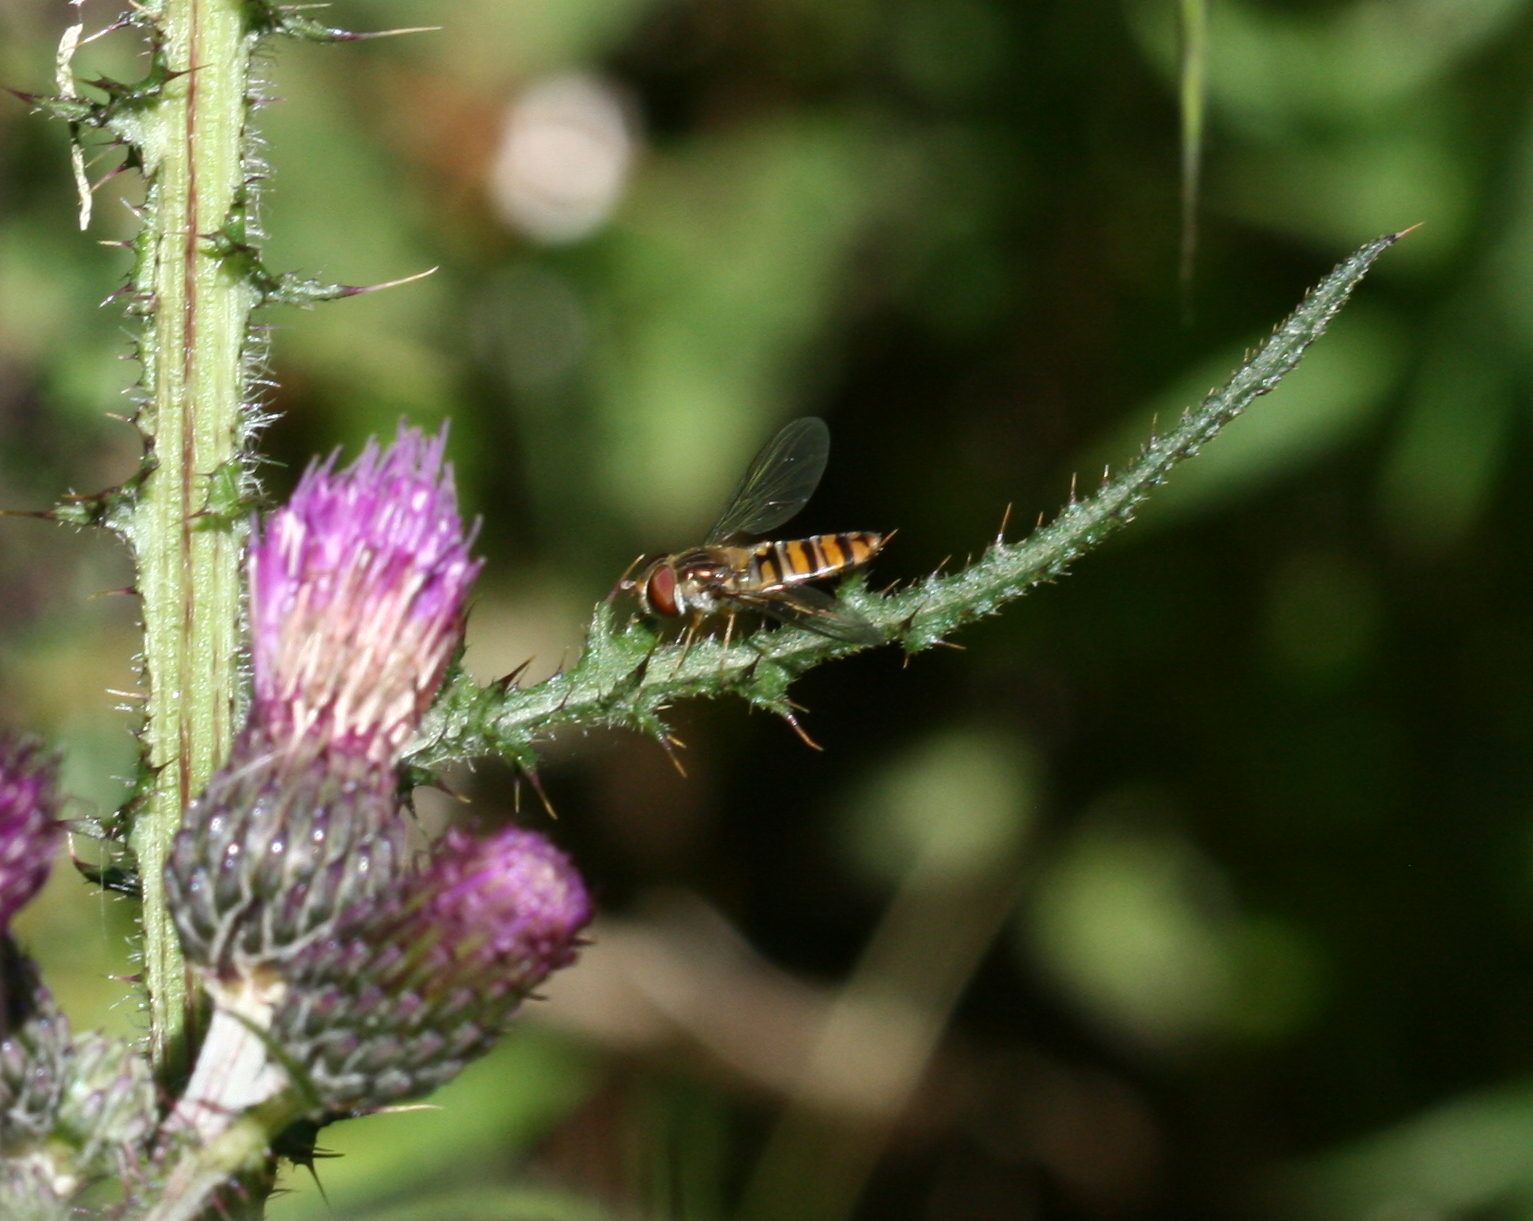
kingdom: Animalia
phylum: Arthropoda
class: Insecta
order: Diptera
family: Syrphidae
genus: Episyrphus
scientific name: Episyrphus balteatus
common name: Marmalade hoverfly
